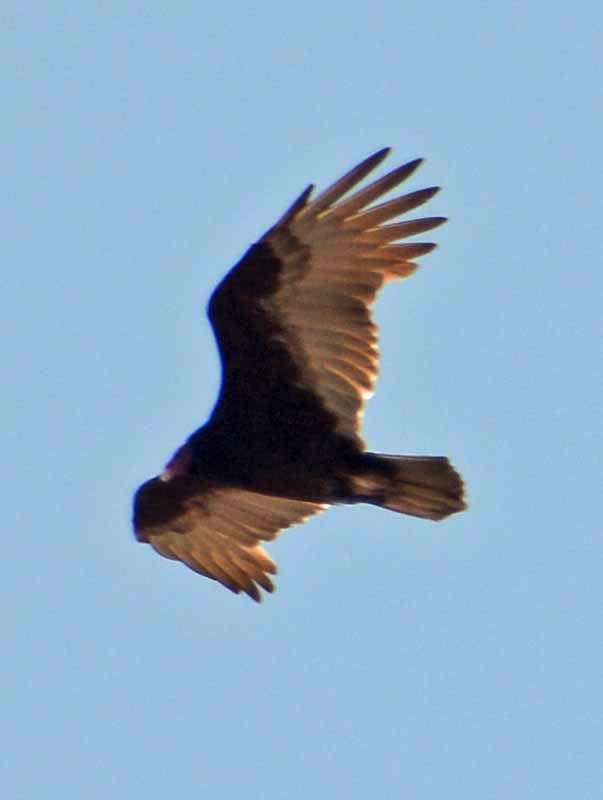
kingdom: Animalia
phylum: Chordata
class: Aves
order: Accipitriformes
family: Cathartidae
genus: Cathartes
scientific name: Cathartes aura
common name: Turkey vulture
